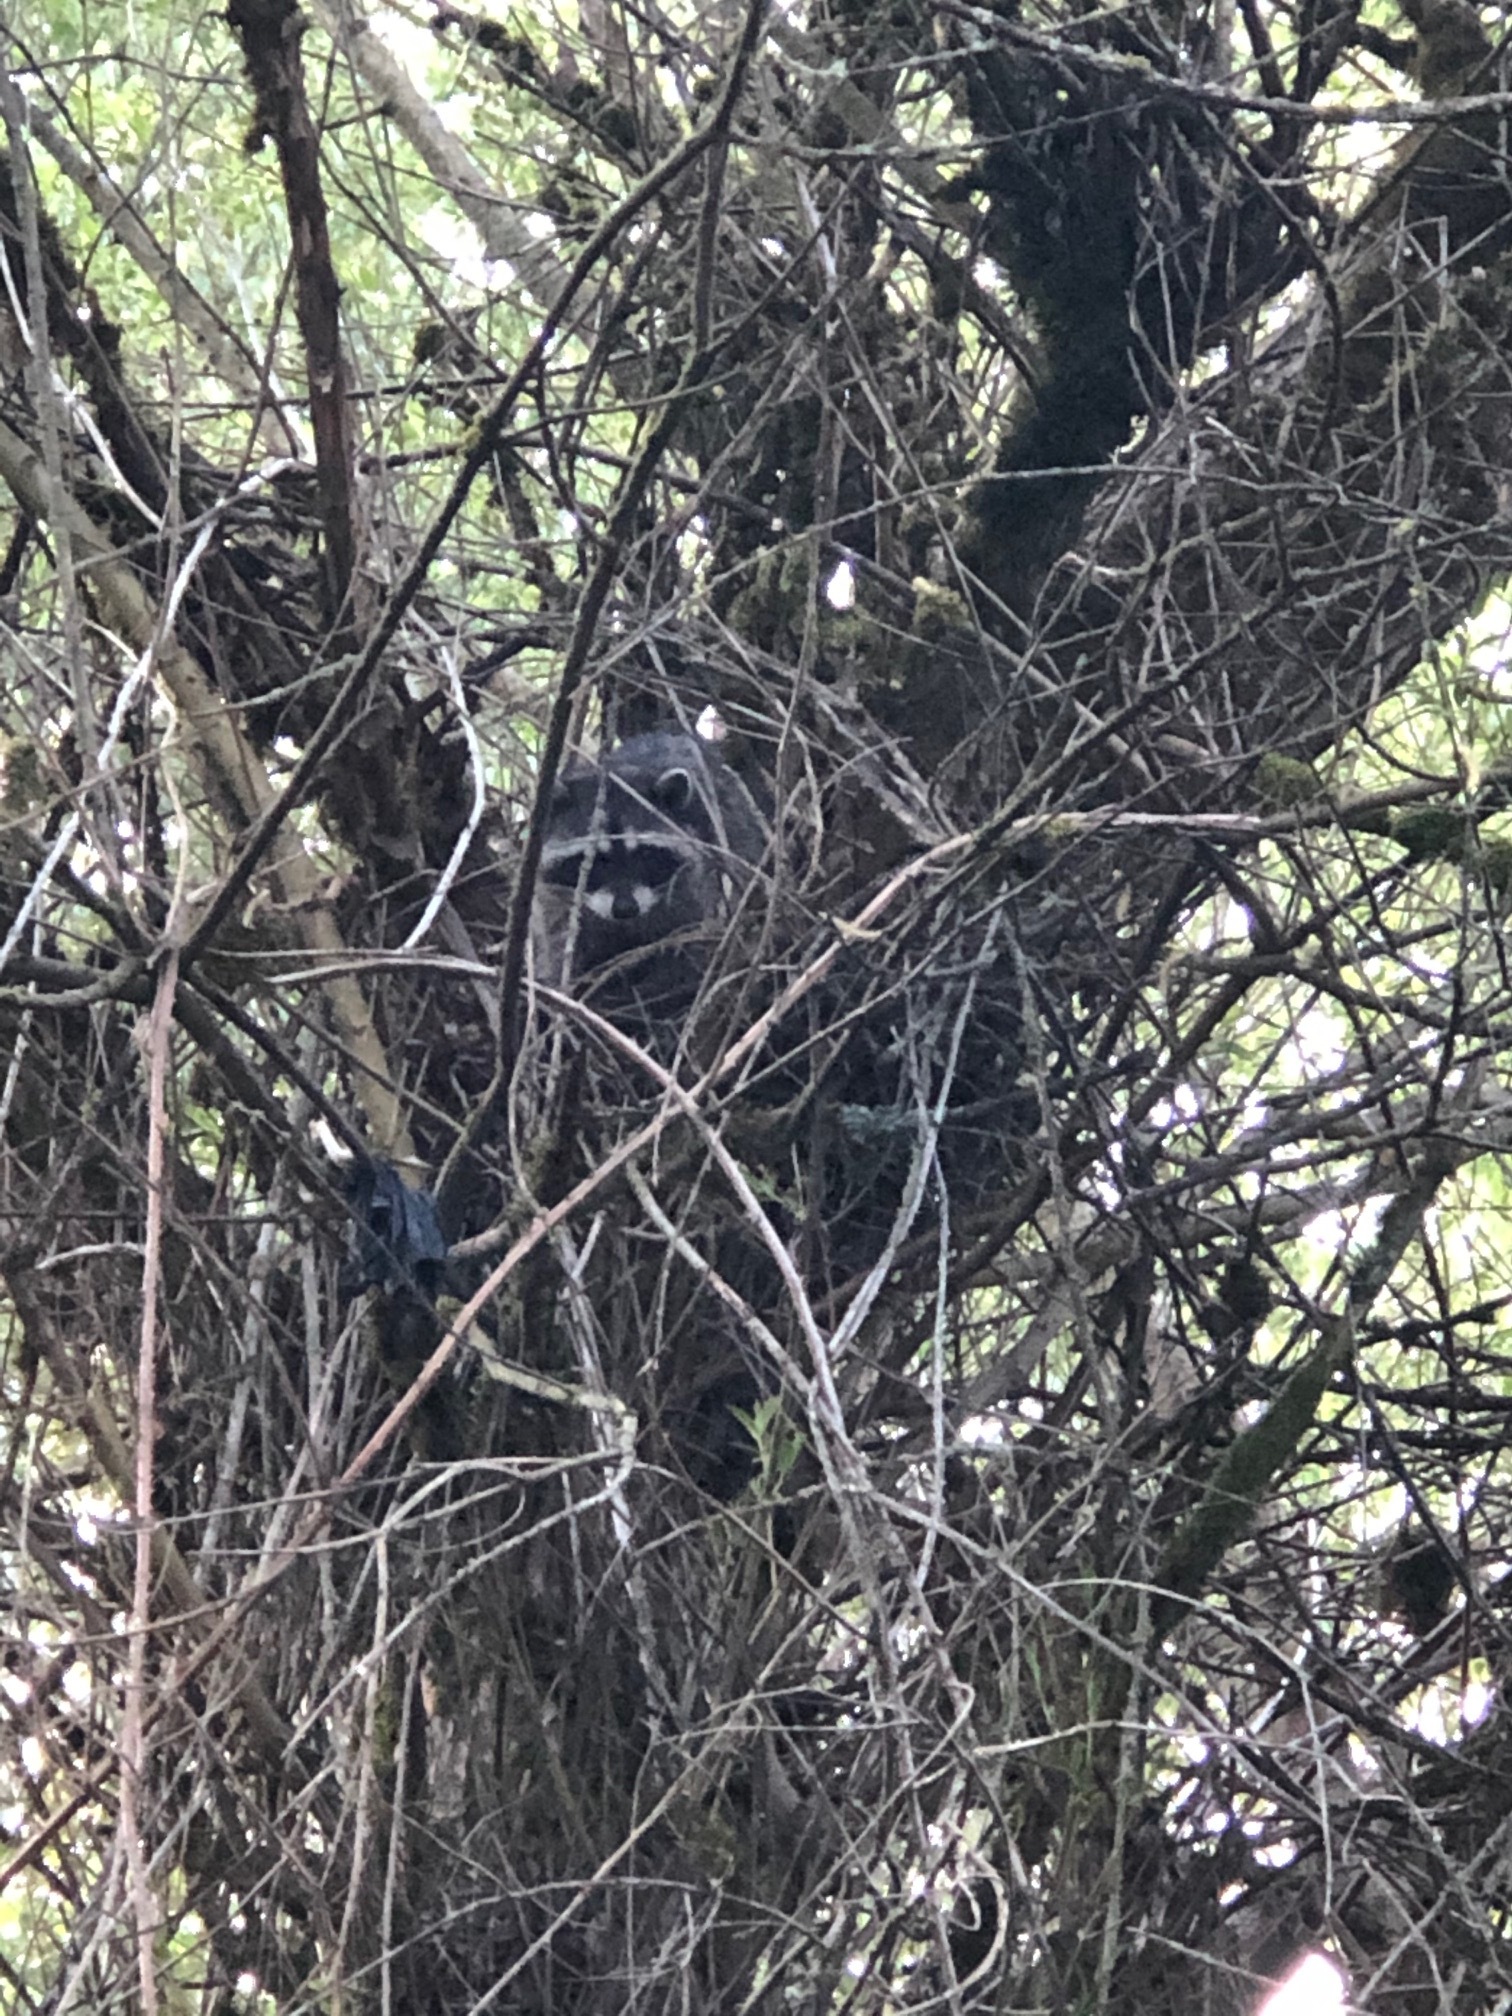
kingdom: Animalia
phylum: Chordata
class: Mammalia
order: Carnivora
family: Procyonidae
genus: Procyon
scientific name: Procyon lotor
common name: Raccoon
